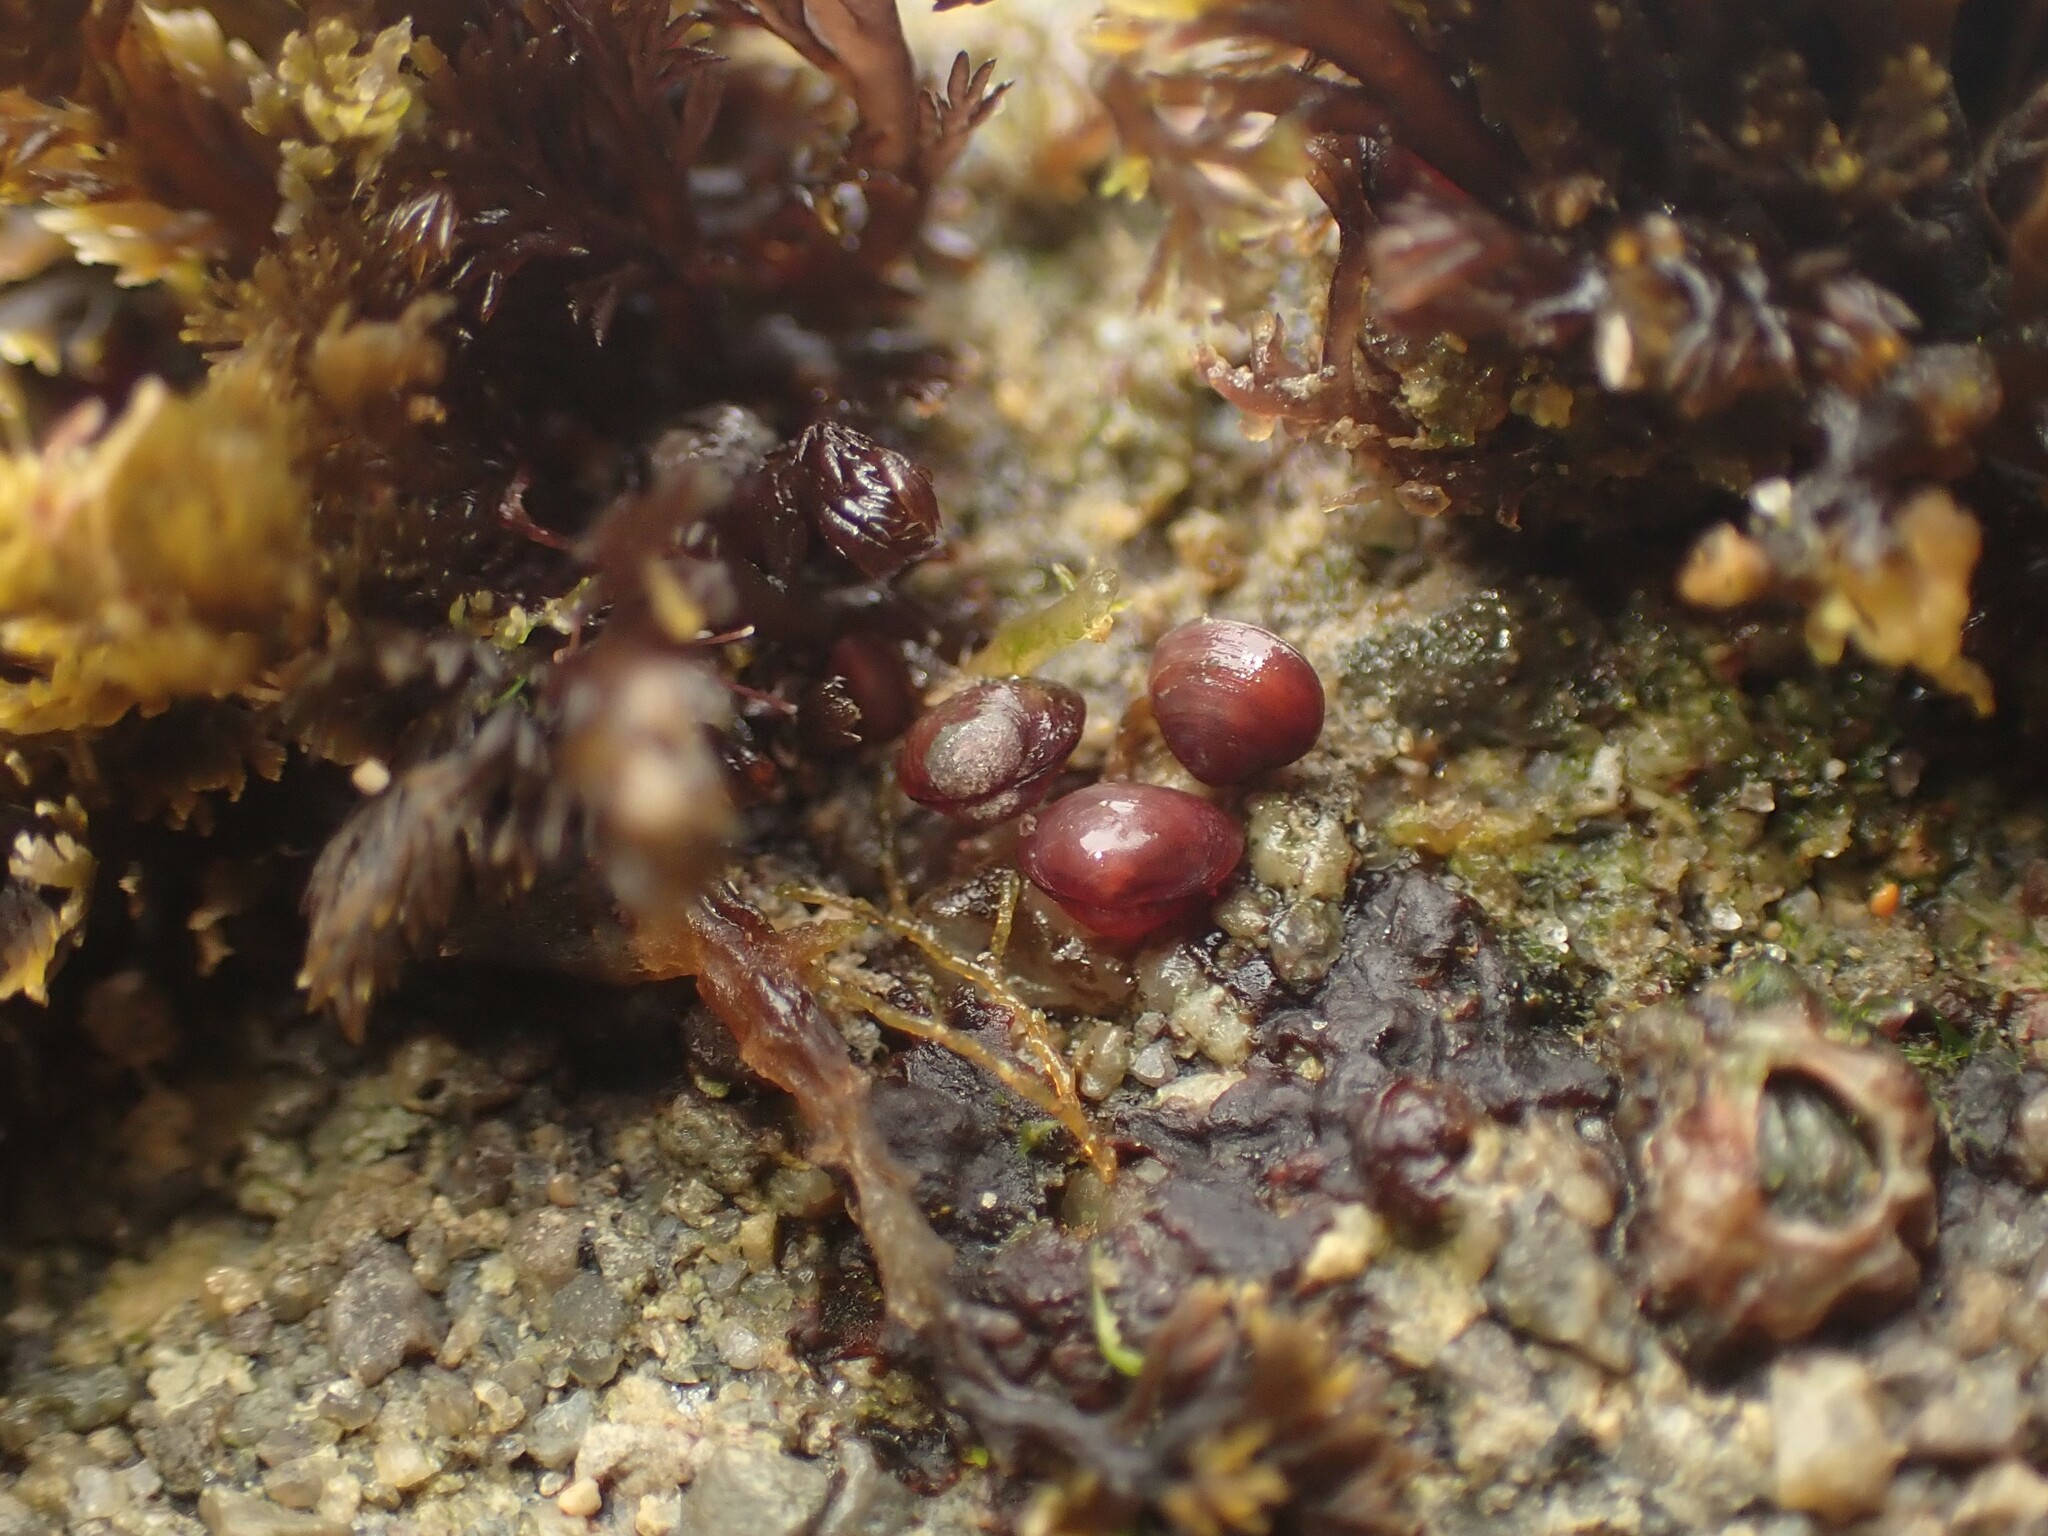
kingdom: Animalia
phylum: Mollusca
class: Bivalvia
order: Galeommatida
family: Lasaeidae
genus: Lasaea
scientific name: Lasaea hinemoa
